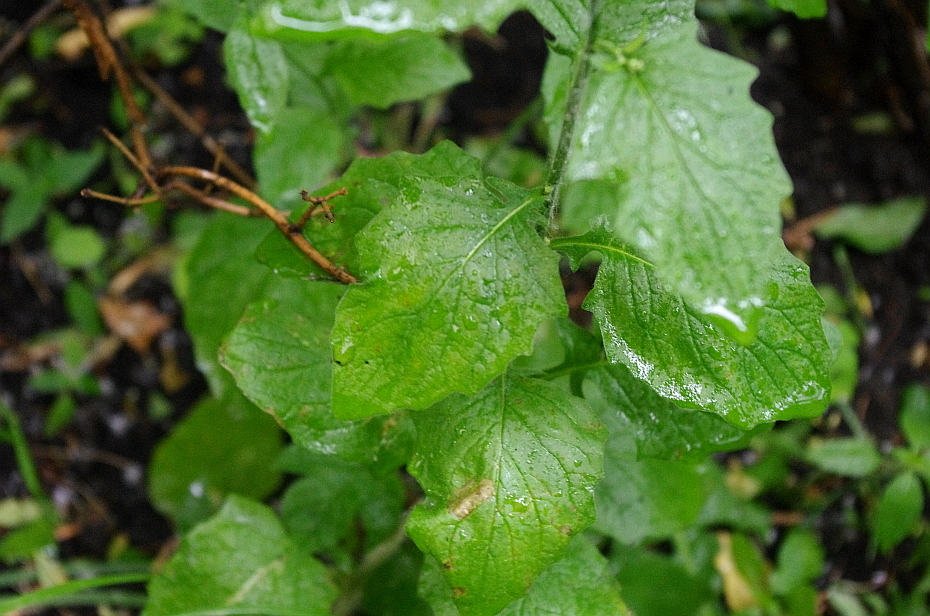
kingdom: Plantae
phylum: Tracheophyta
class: Magnoliopsida
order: Asterales
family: Asteraceae
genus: Lapsana
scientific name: Lapsana communis
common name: Nipplewort
